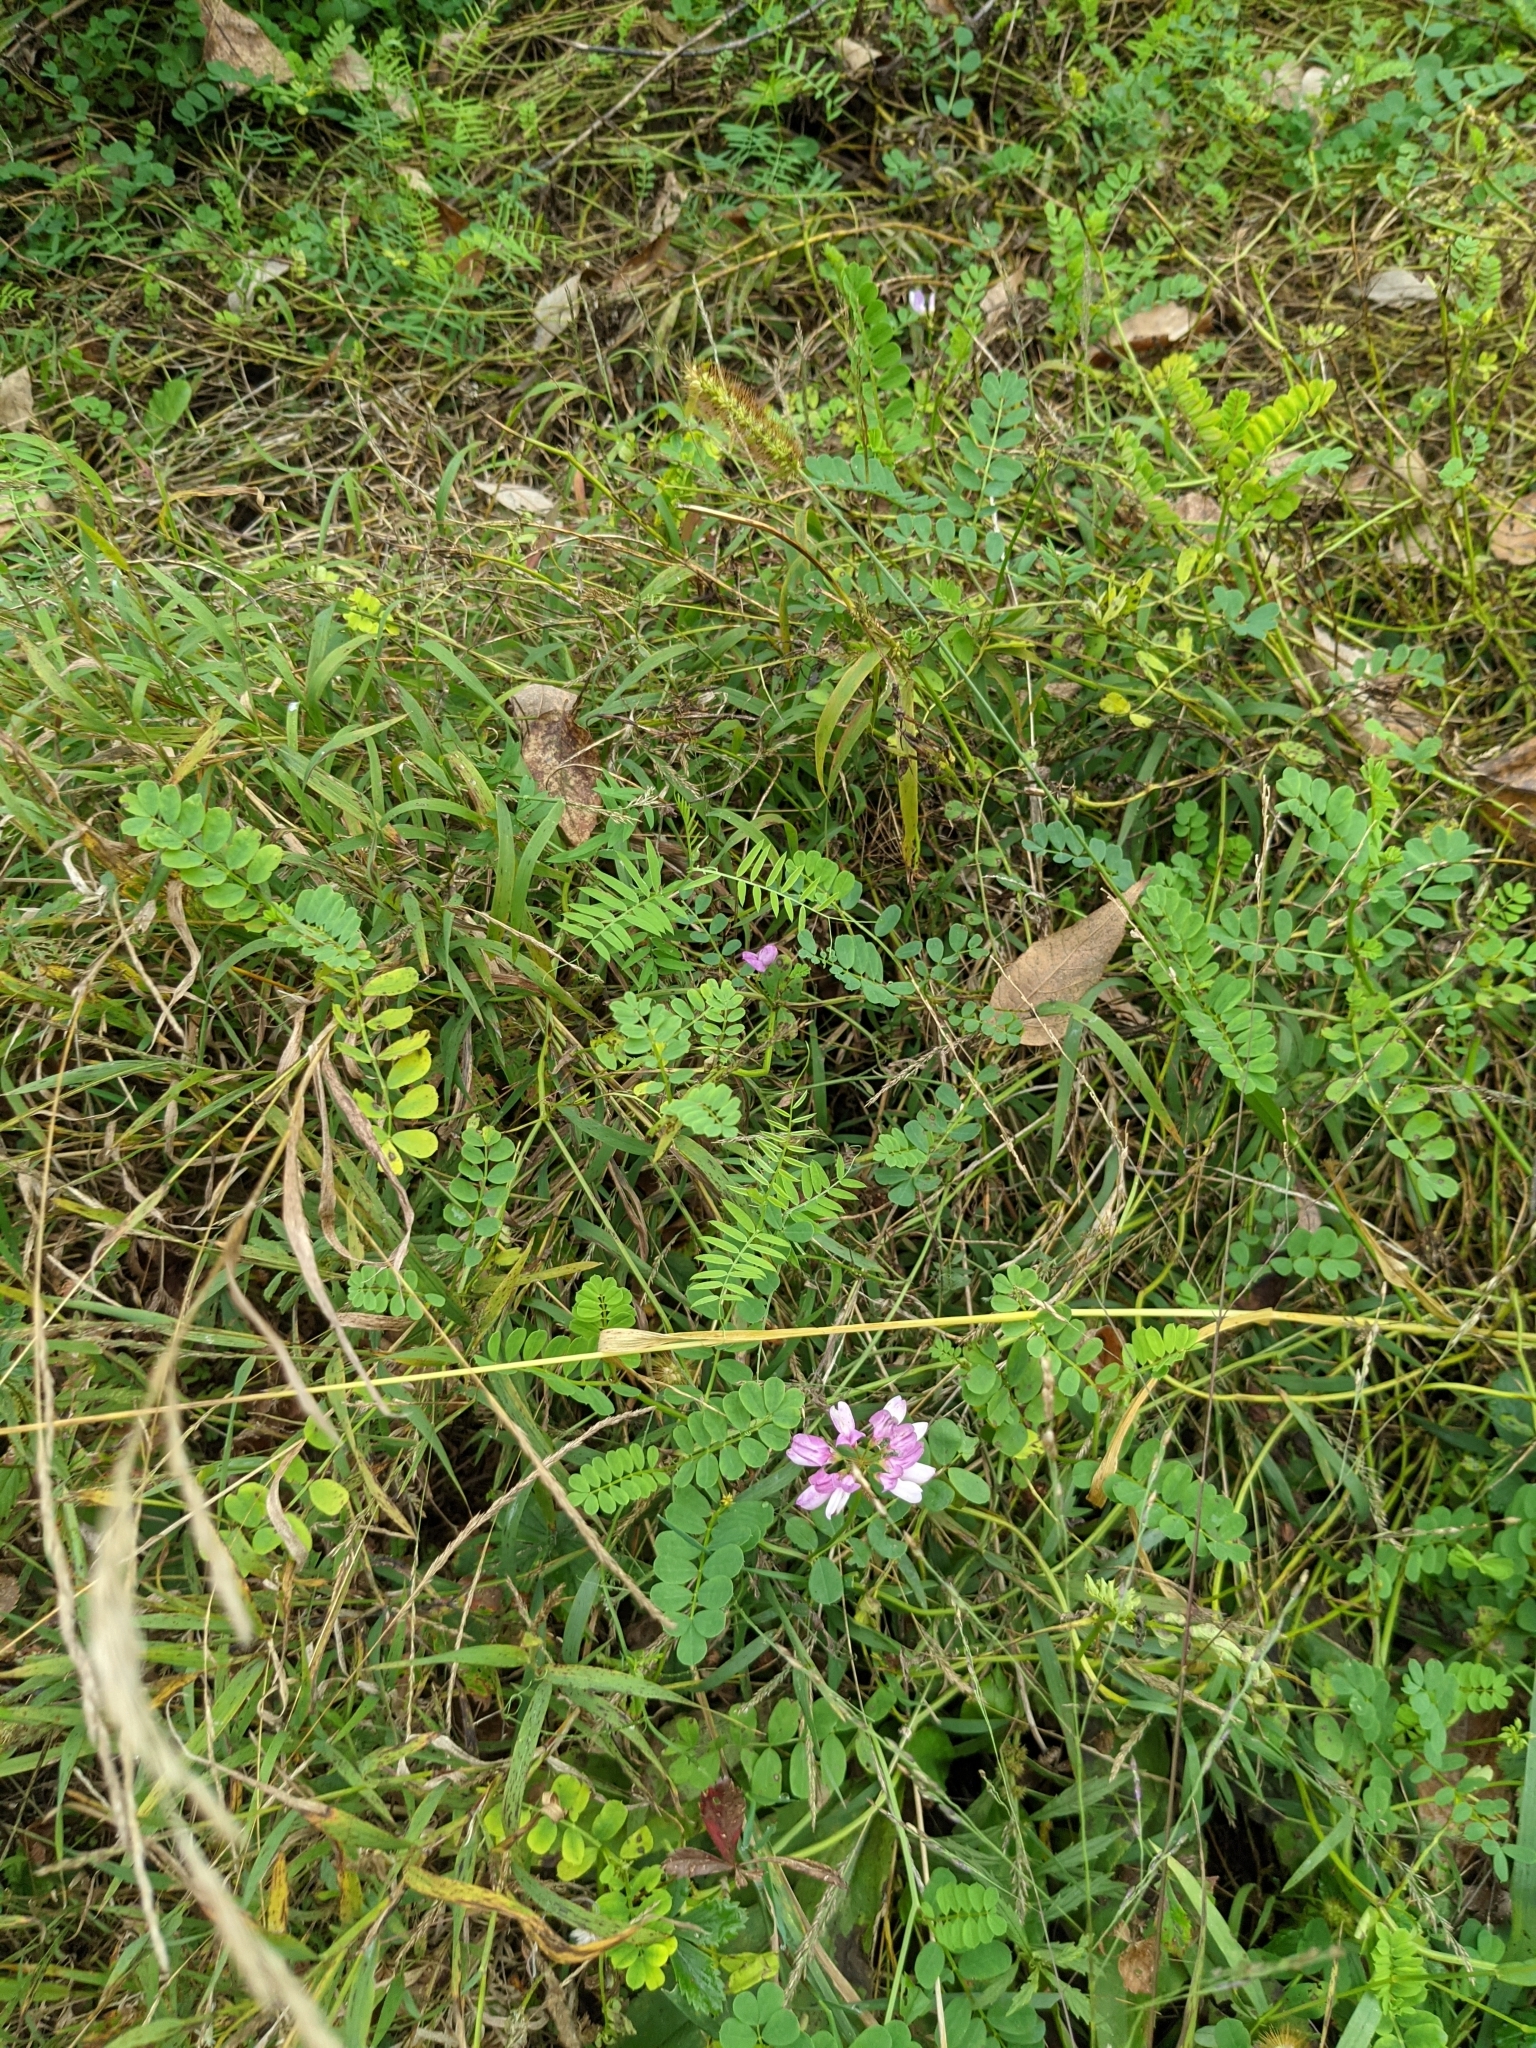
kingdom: Plantae
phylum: Tracheophyta
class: Magnoliopsida
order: Fabales
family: Fabaceae
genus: Coronilla
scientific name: Coronilla varia
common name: Crownvetch
